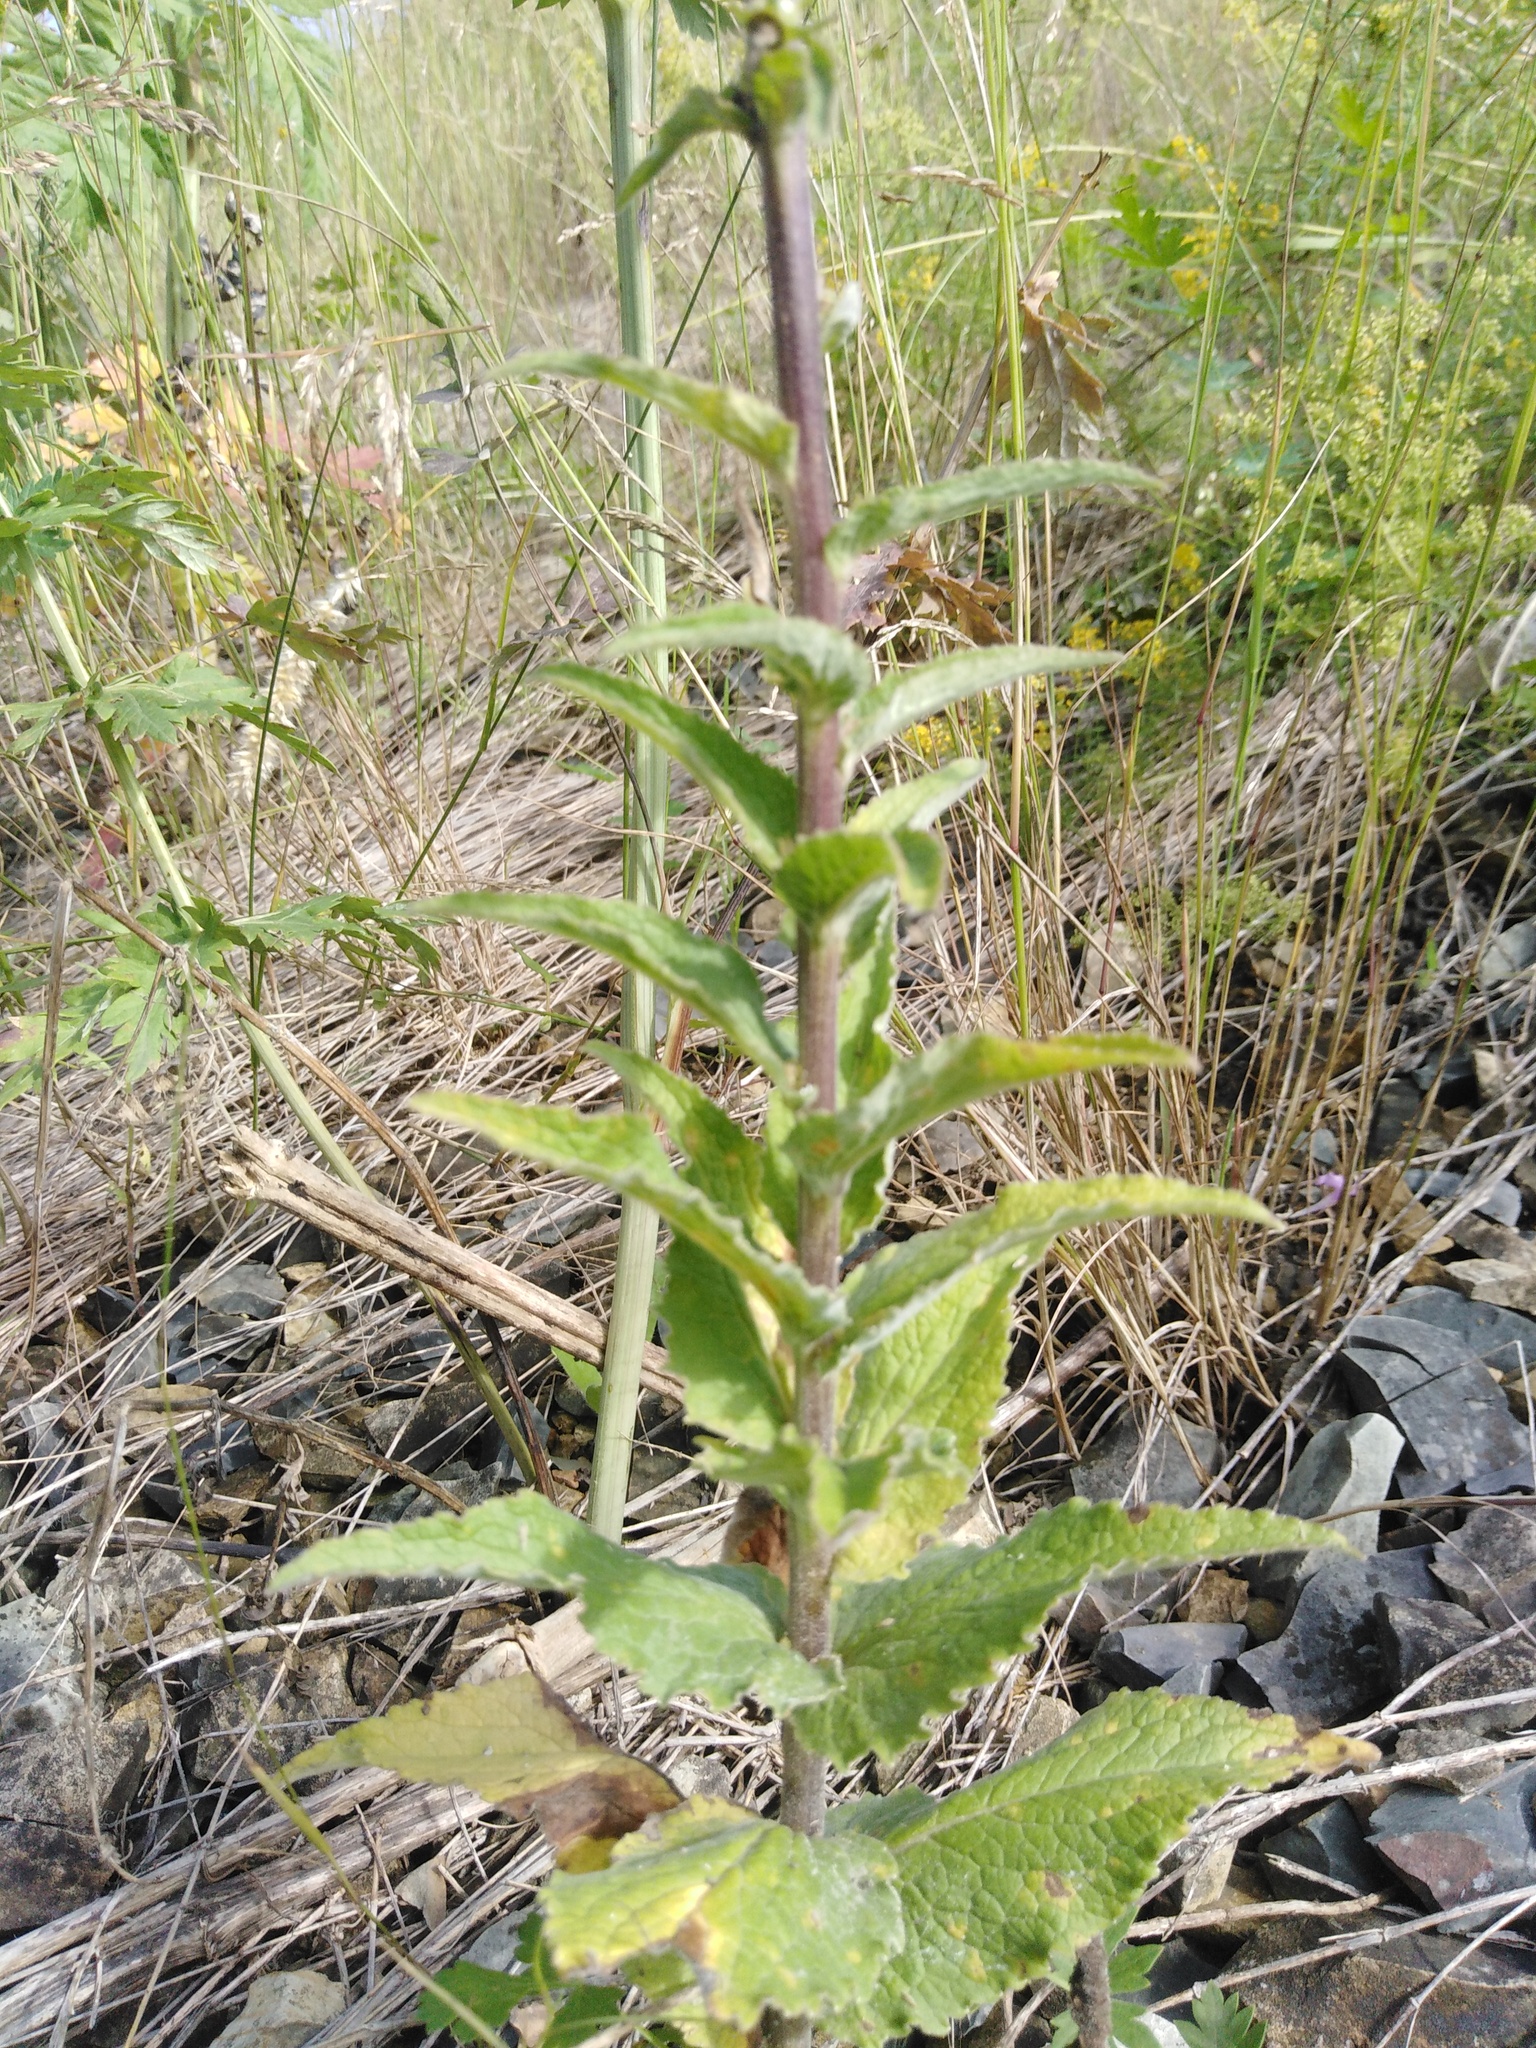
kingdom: Plantae
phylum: Tracheophyta
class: Magnoliopsida
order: Asterales
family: Campanulaceae
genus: Campanula
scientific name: Campanula bononiensis
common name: Pale bellflower
